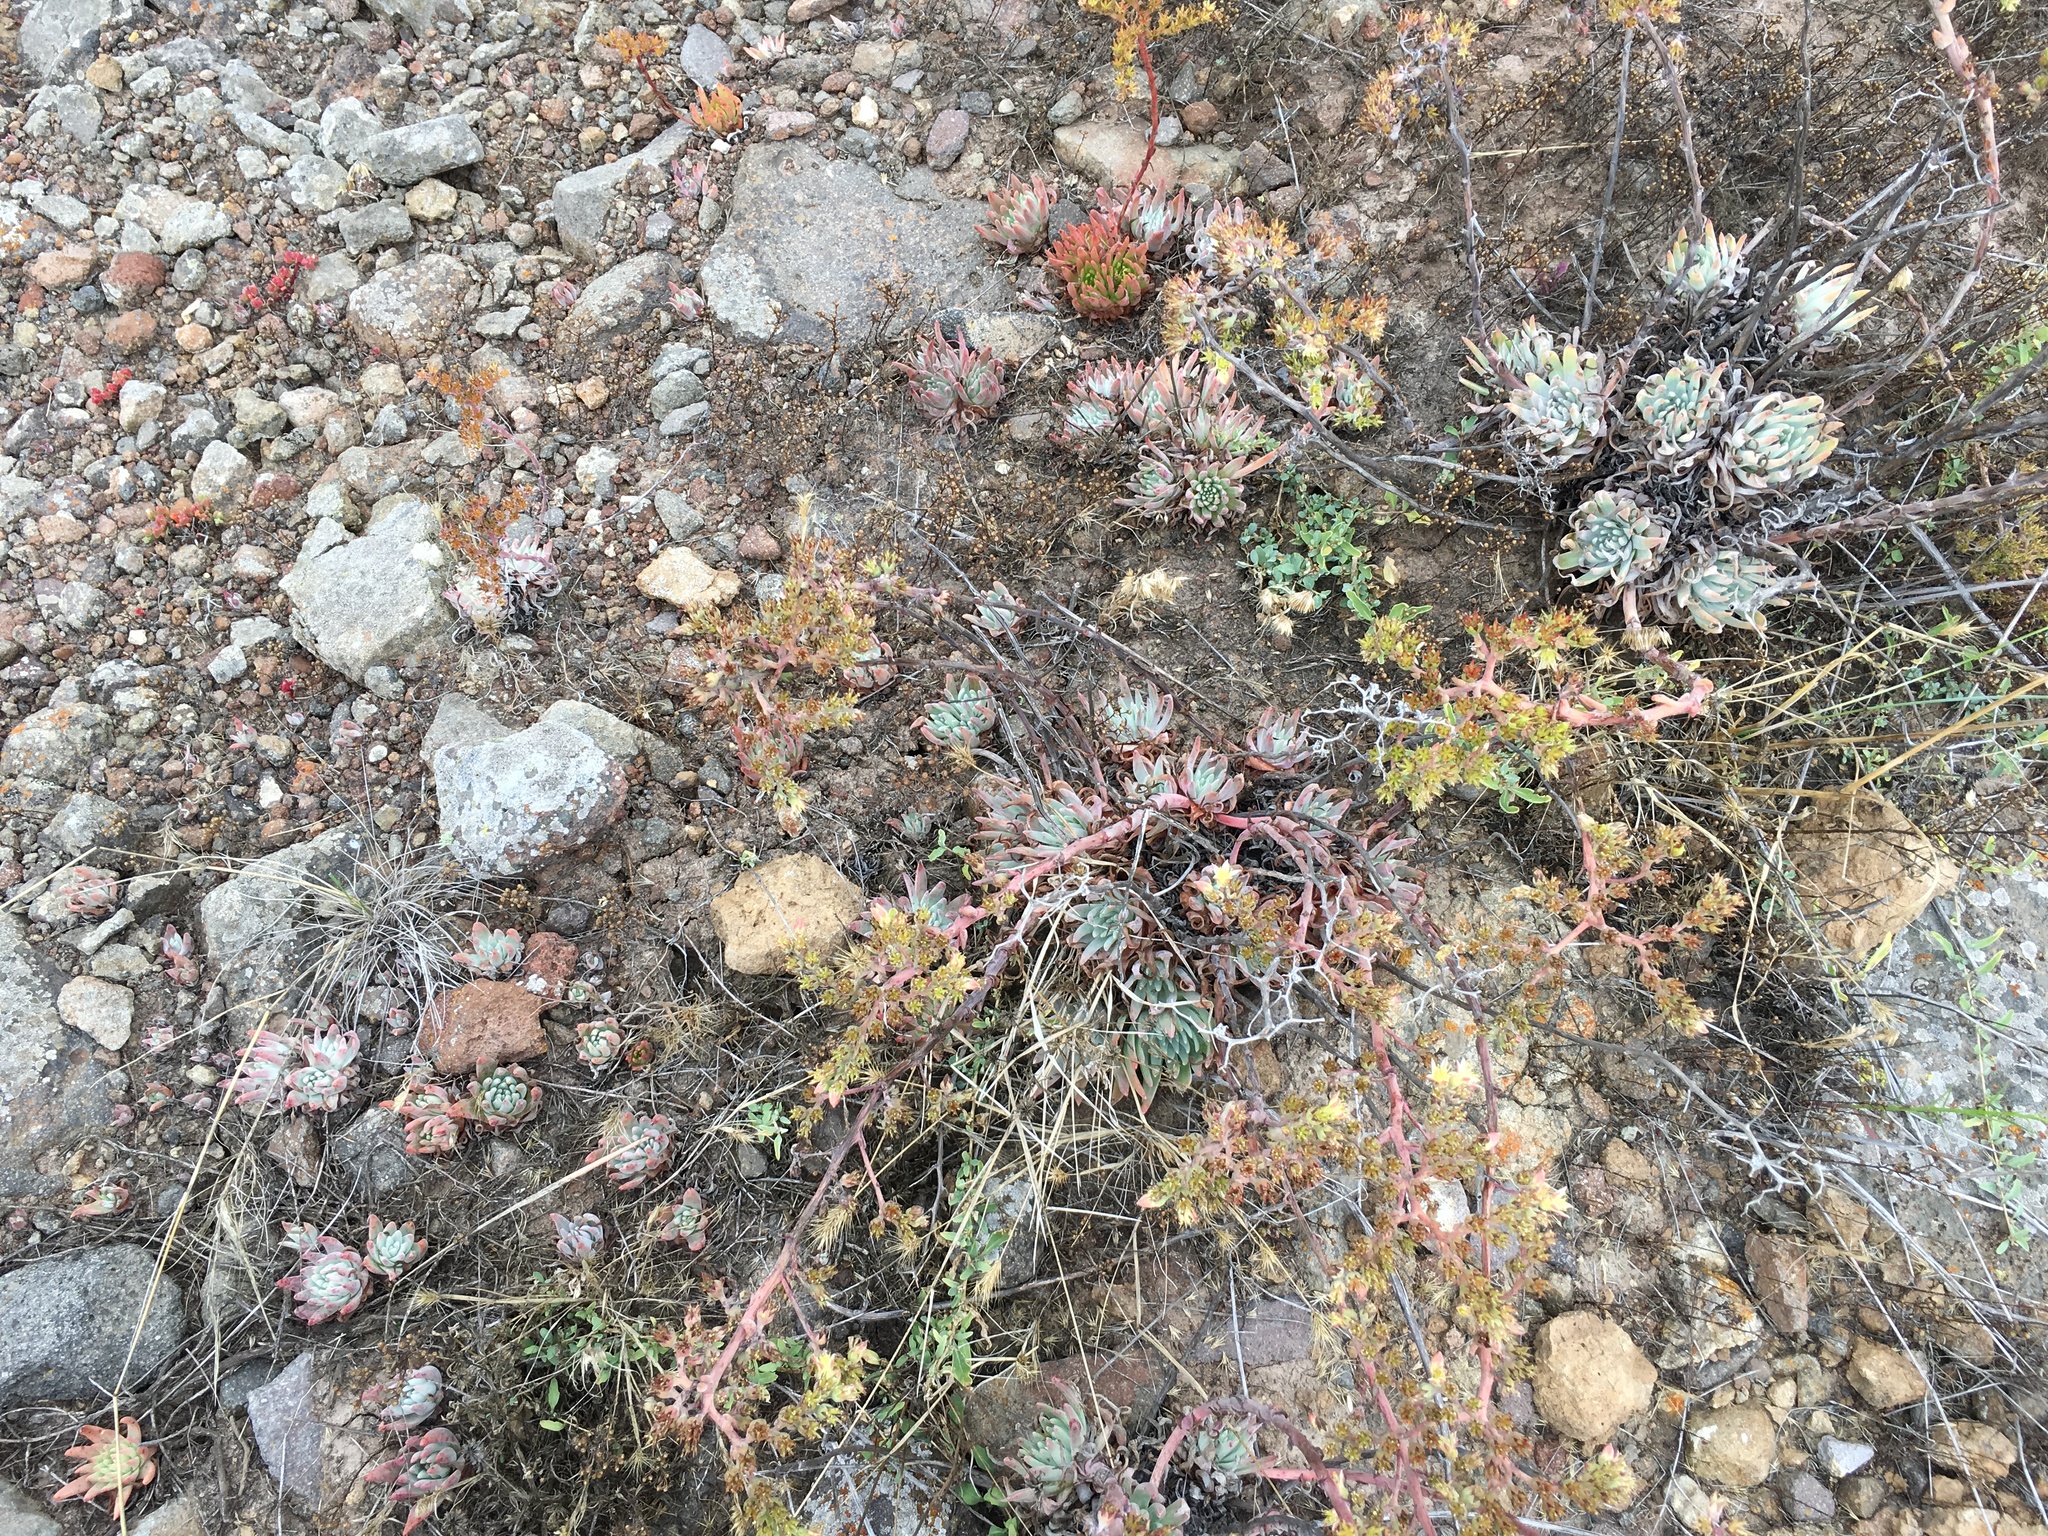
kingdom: Plantae
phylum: Tracheophyta
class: Magnoliopsida
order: Saxifragales
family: Crassulaceae
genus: Dudleya
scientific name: Dudleya virens
